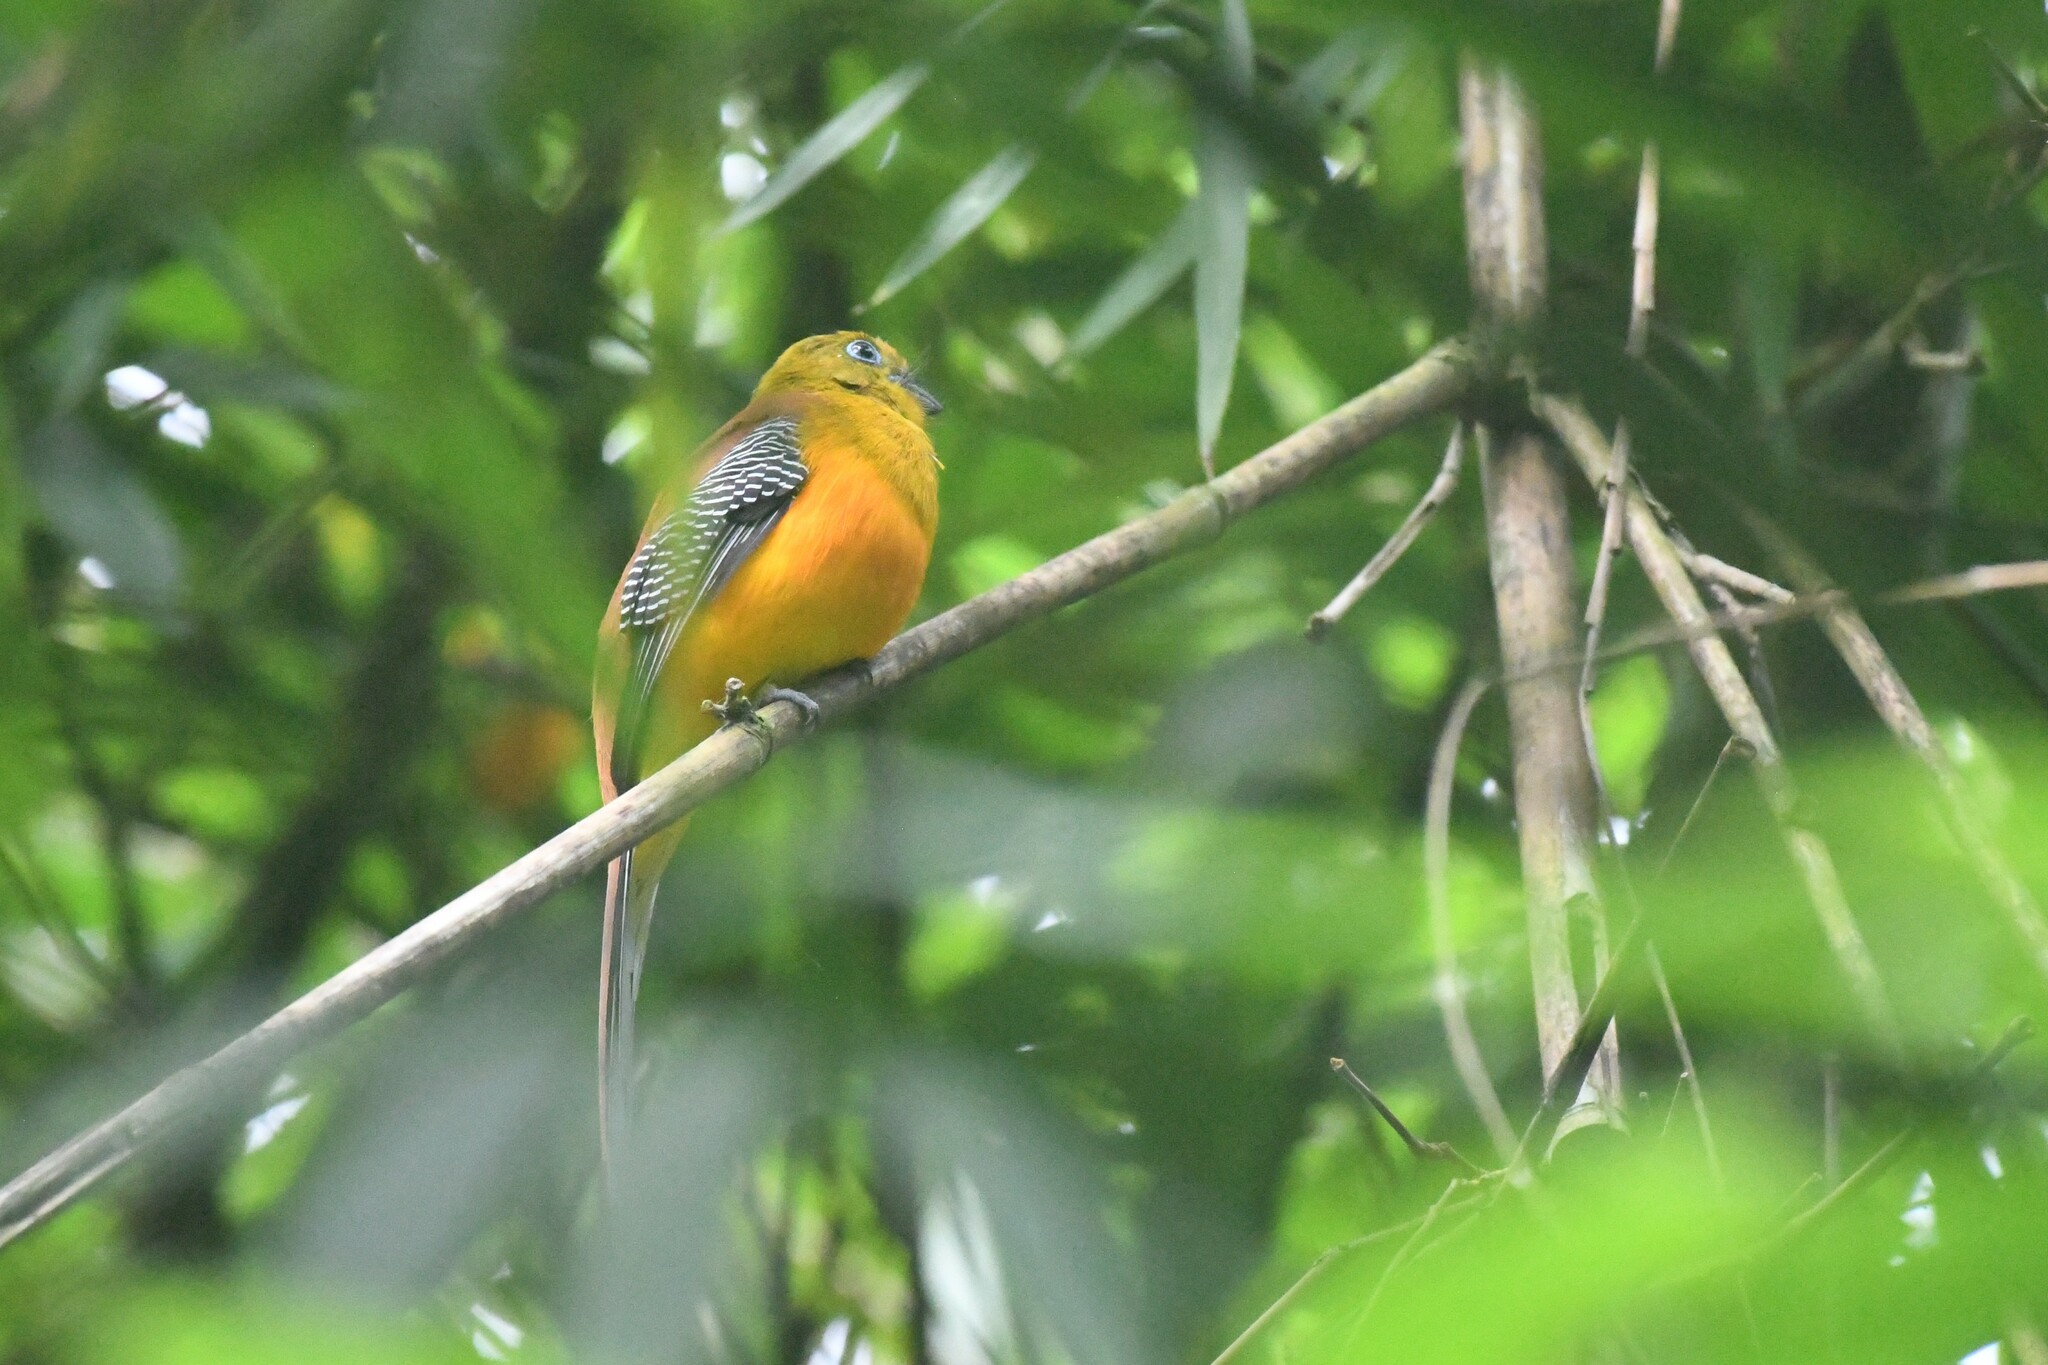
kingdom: Animalia
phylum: Chordata
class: Aves
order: Trogoniformes
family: Trogonidae
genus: Harpactes
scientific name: Harpactes oreskios
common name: Orange-breasted trogon
